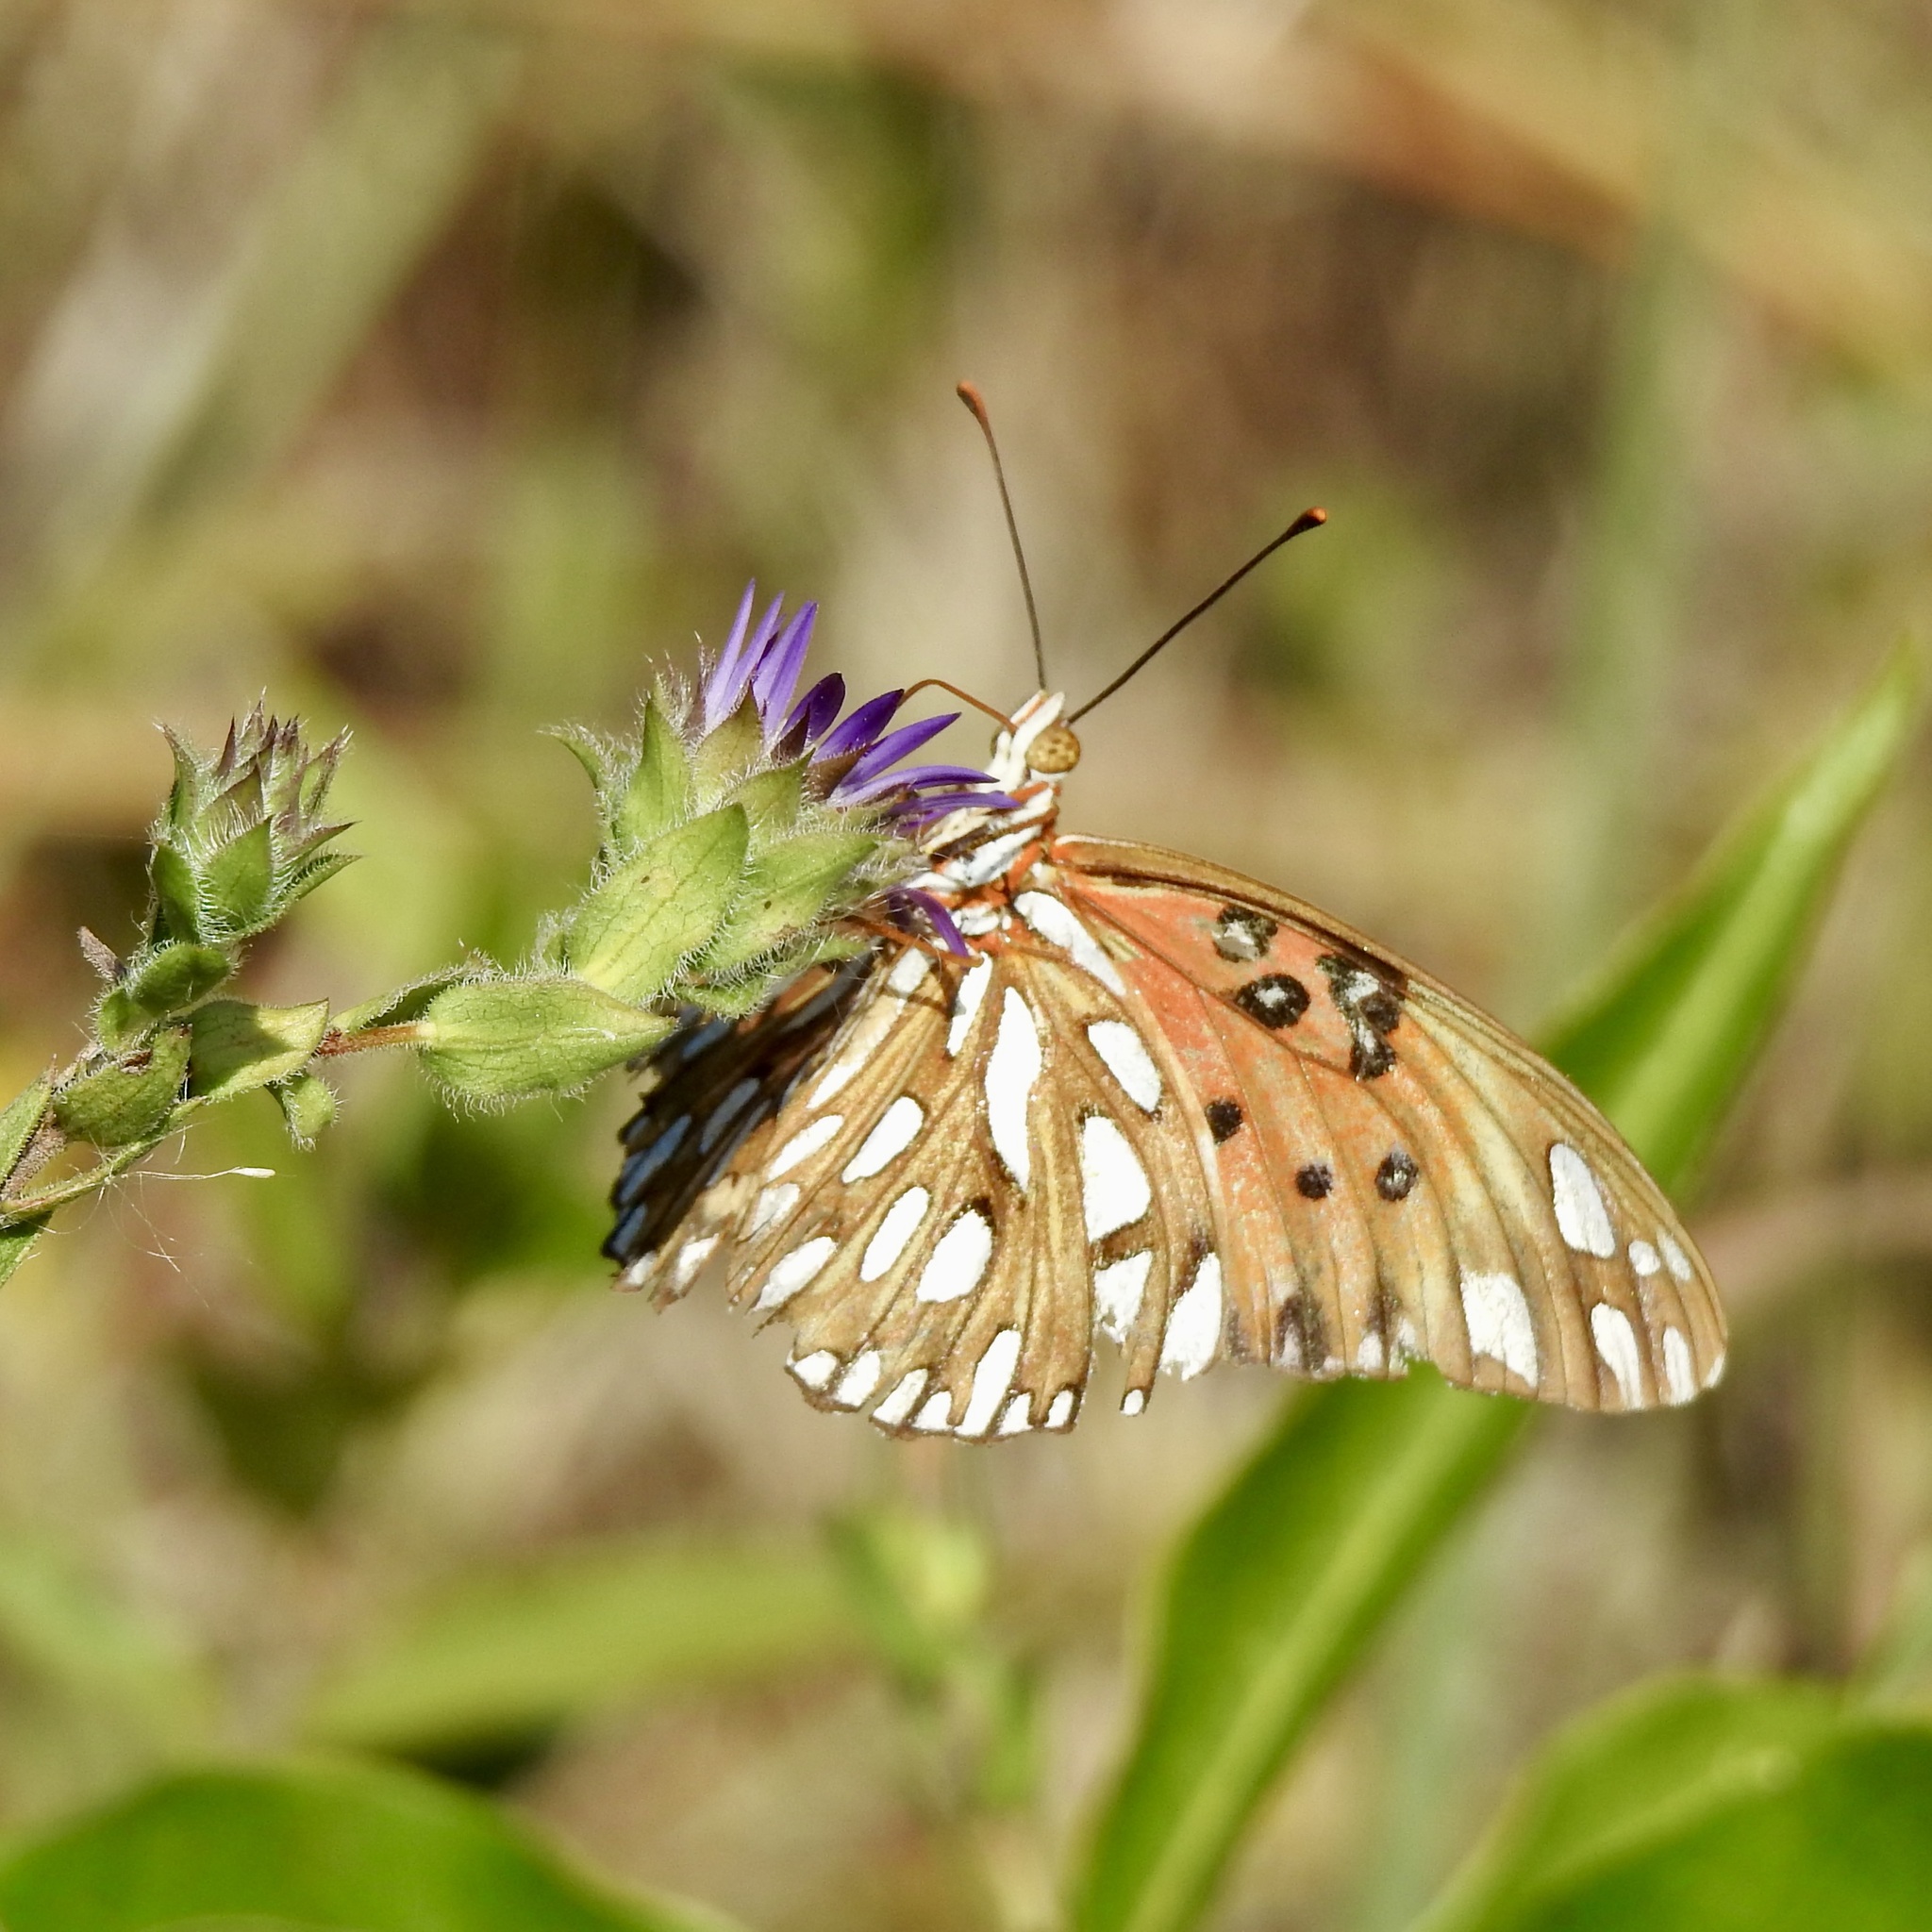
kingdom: Animalia
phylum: Arthropoda
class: Insecta
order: Lepidoptera
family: Nymphalidae
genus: Dione
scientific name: Dione vanillae
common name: Gulf fritillary
